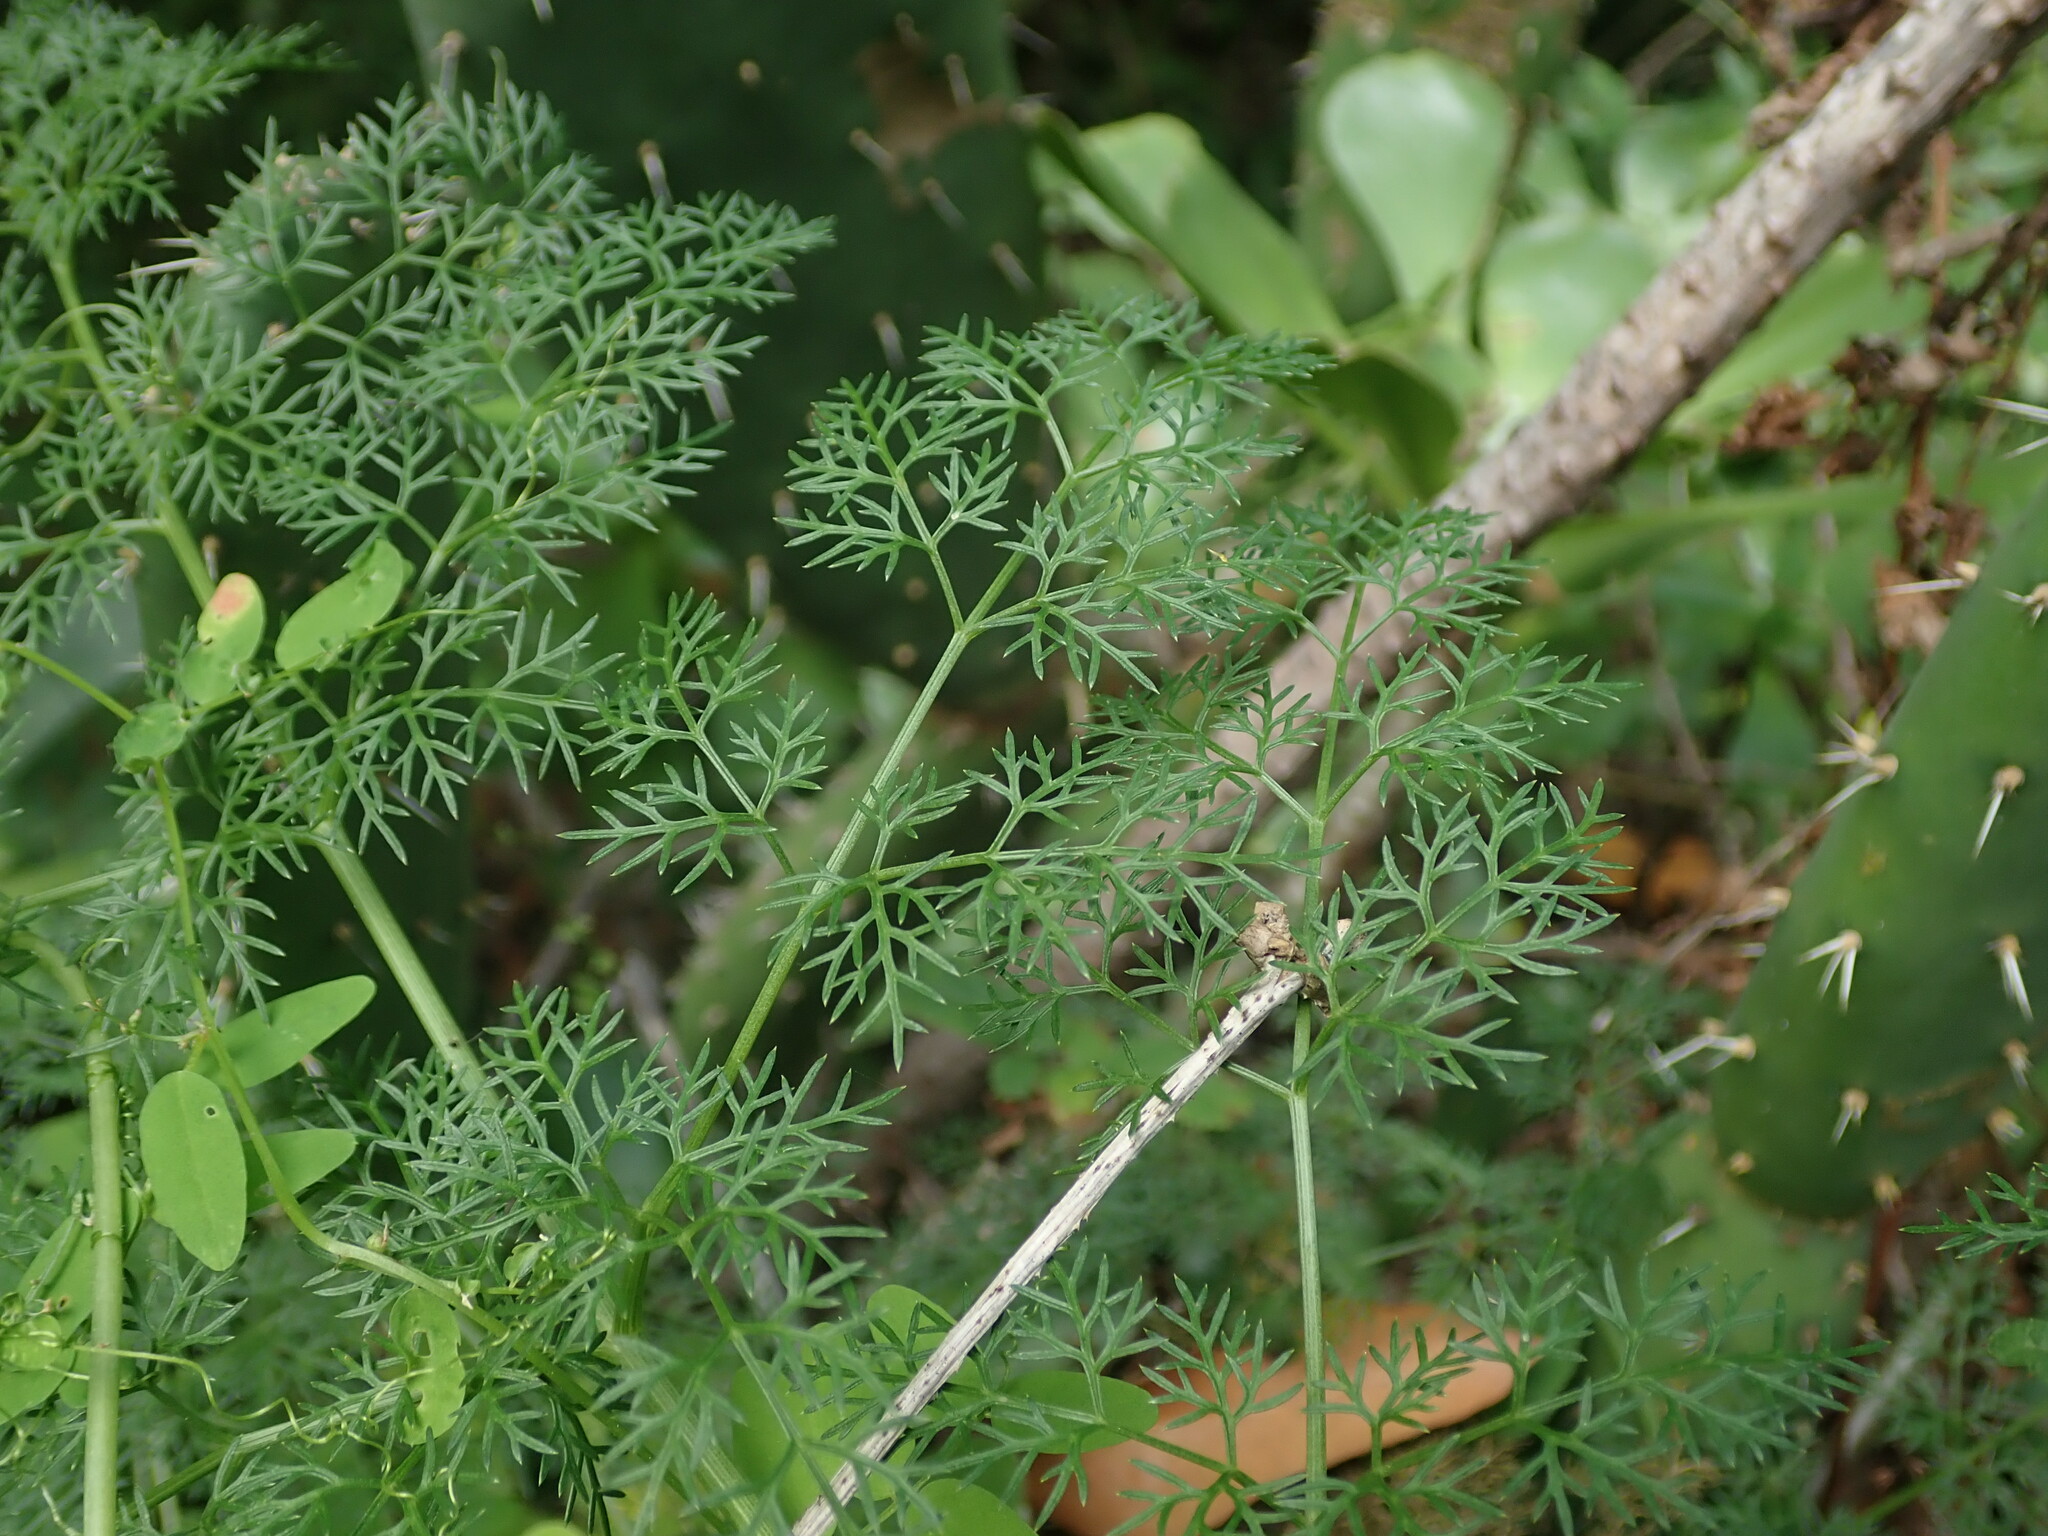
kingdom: Plantae
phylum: Tracheophyta
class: Magnoliopsida
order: Apiales
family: Apiaceae
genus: Ferula
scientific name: Ferula communis
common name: Giant fennel
